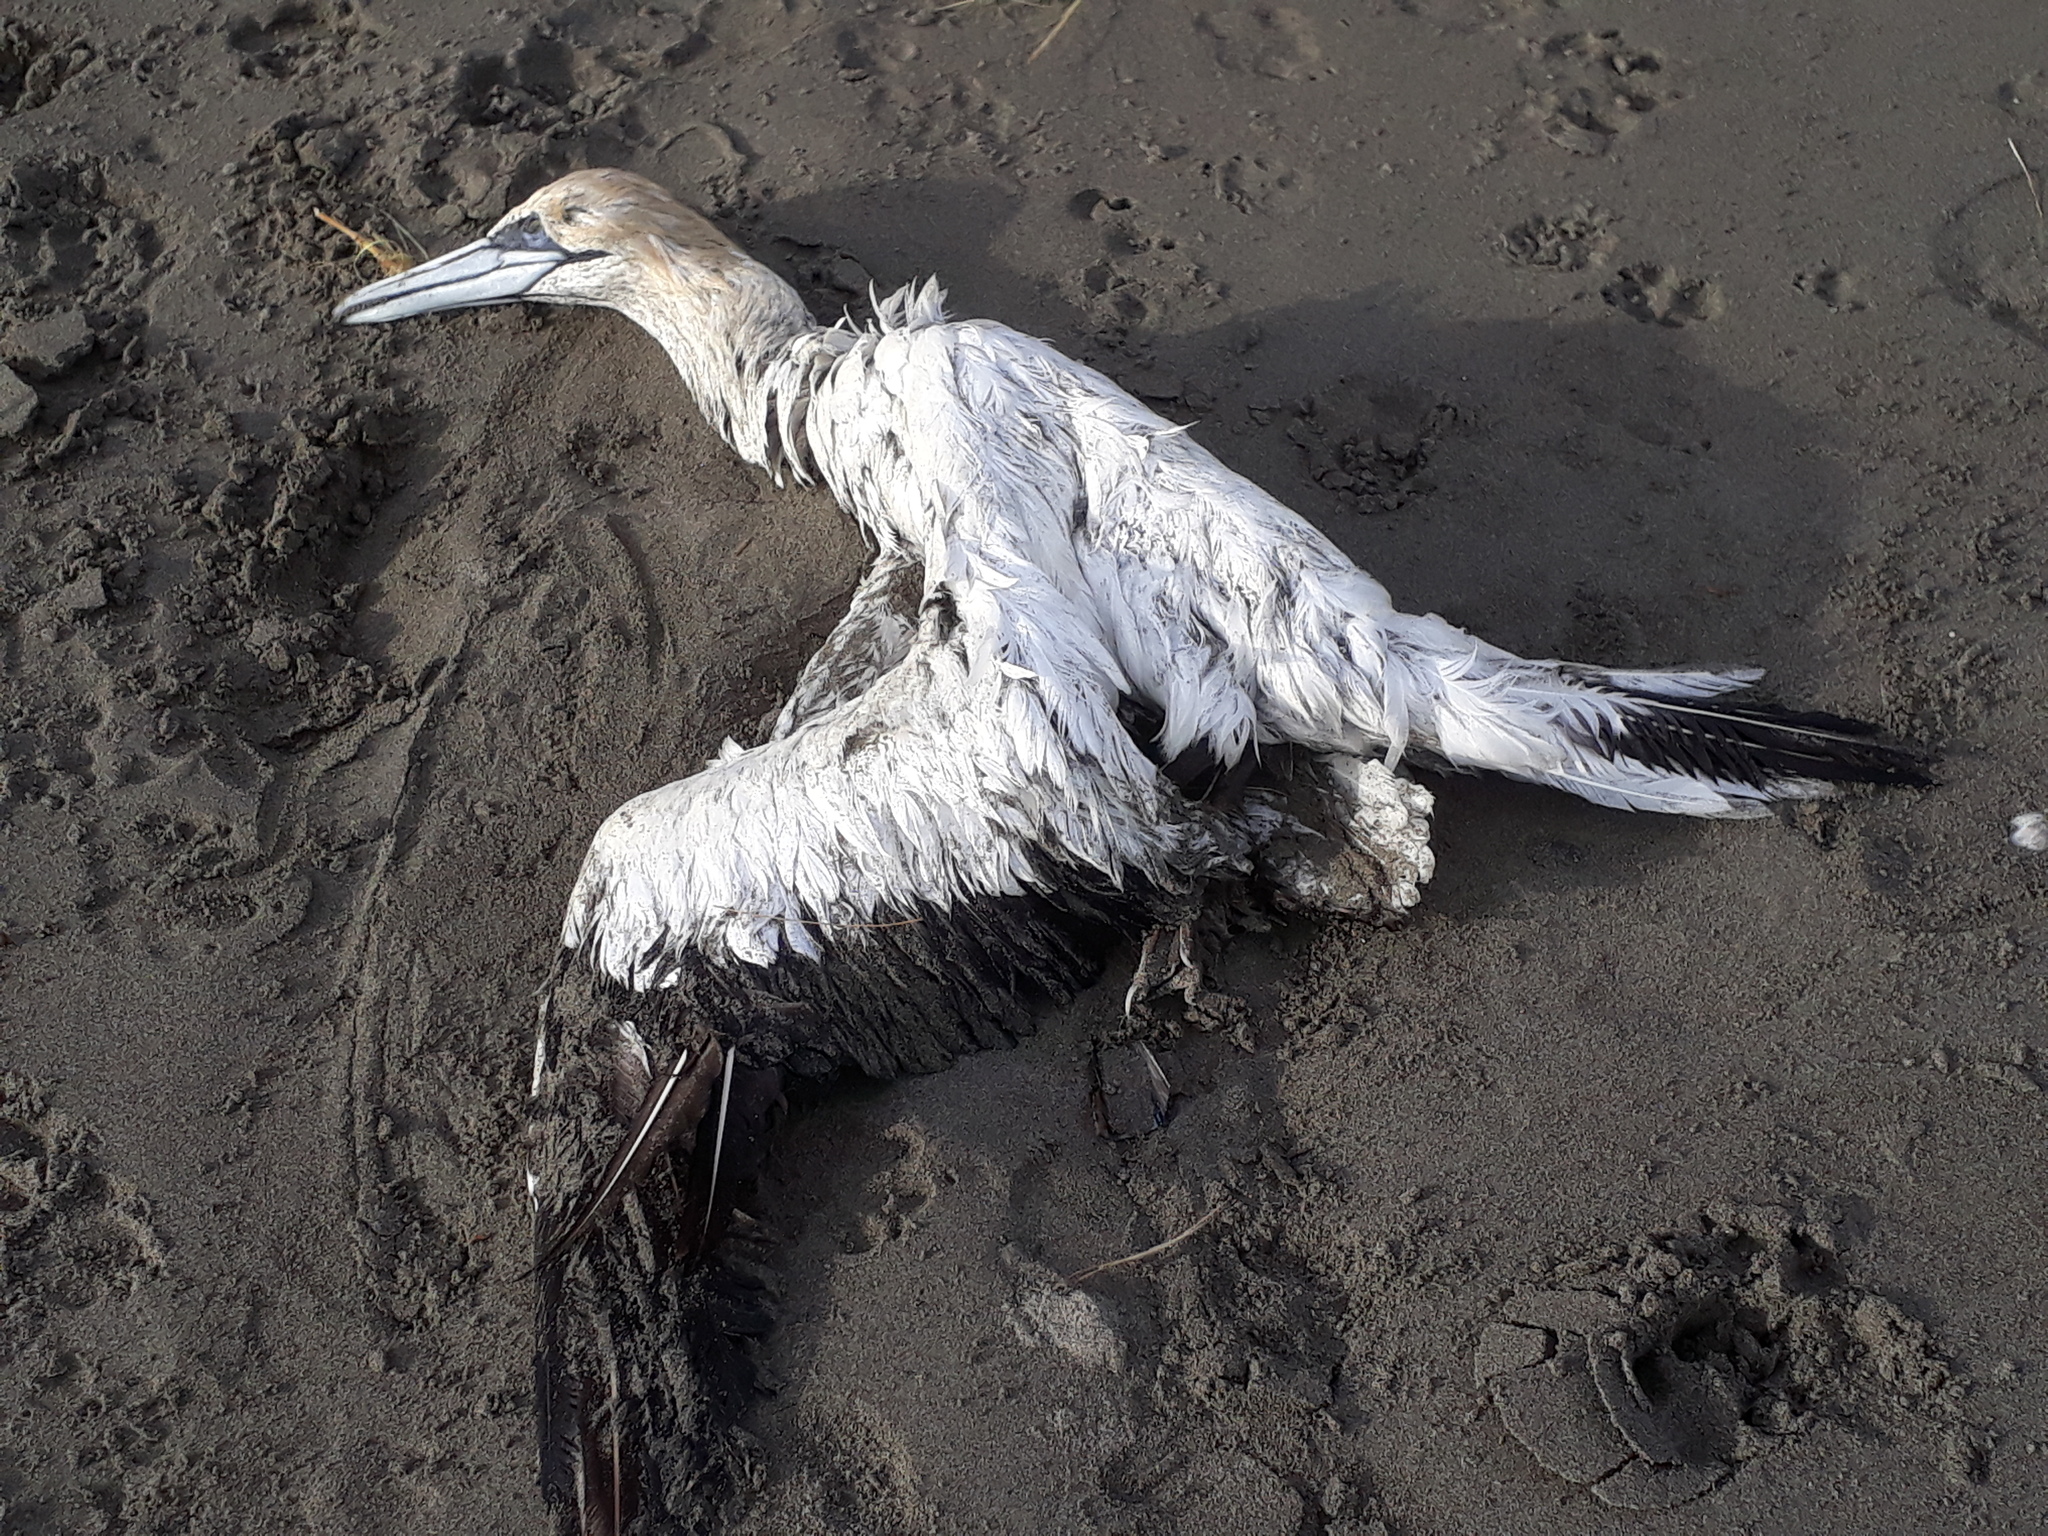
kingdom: Animalia
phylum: Chordata
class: Aves
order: Suliformes
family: Sulidae
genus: Morus
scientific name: Morus serrator
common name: Australasian gannet
